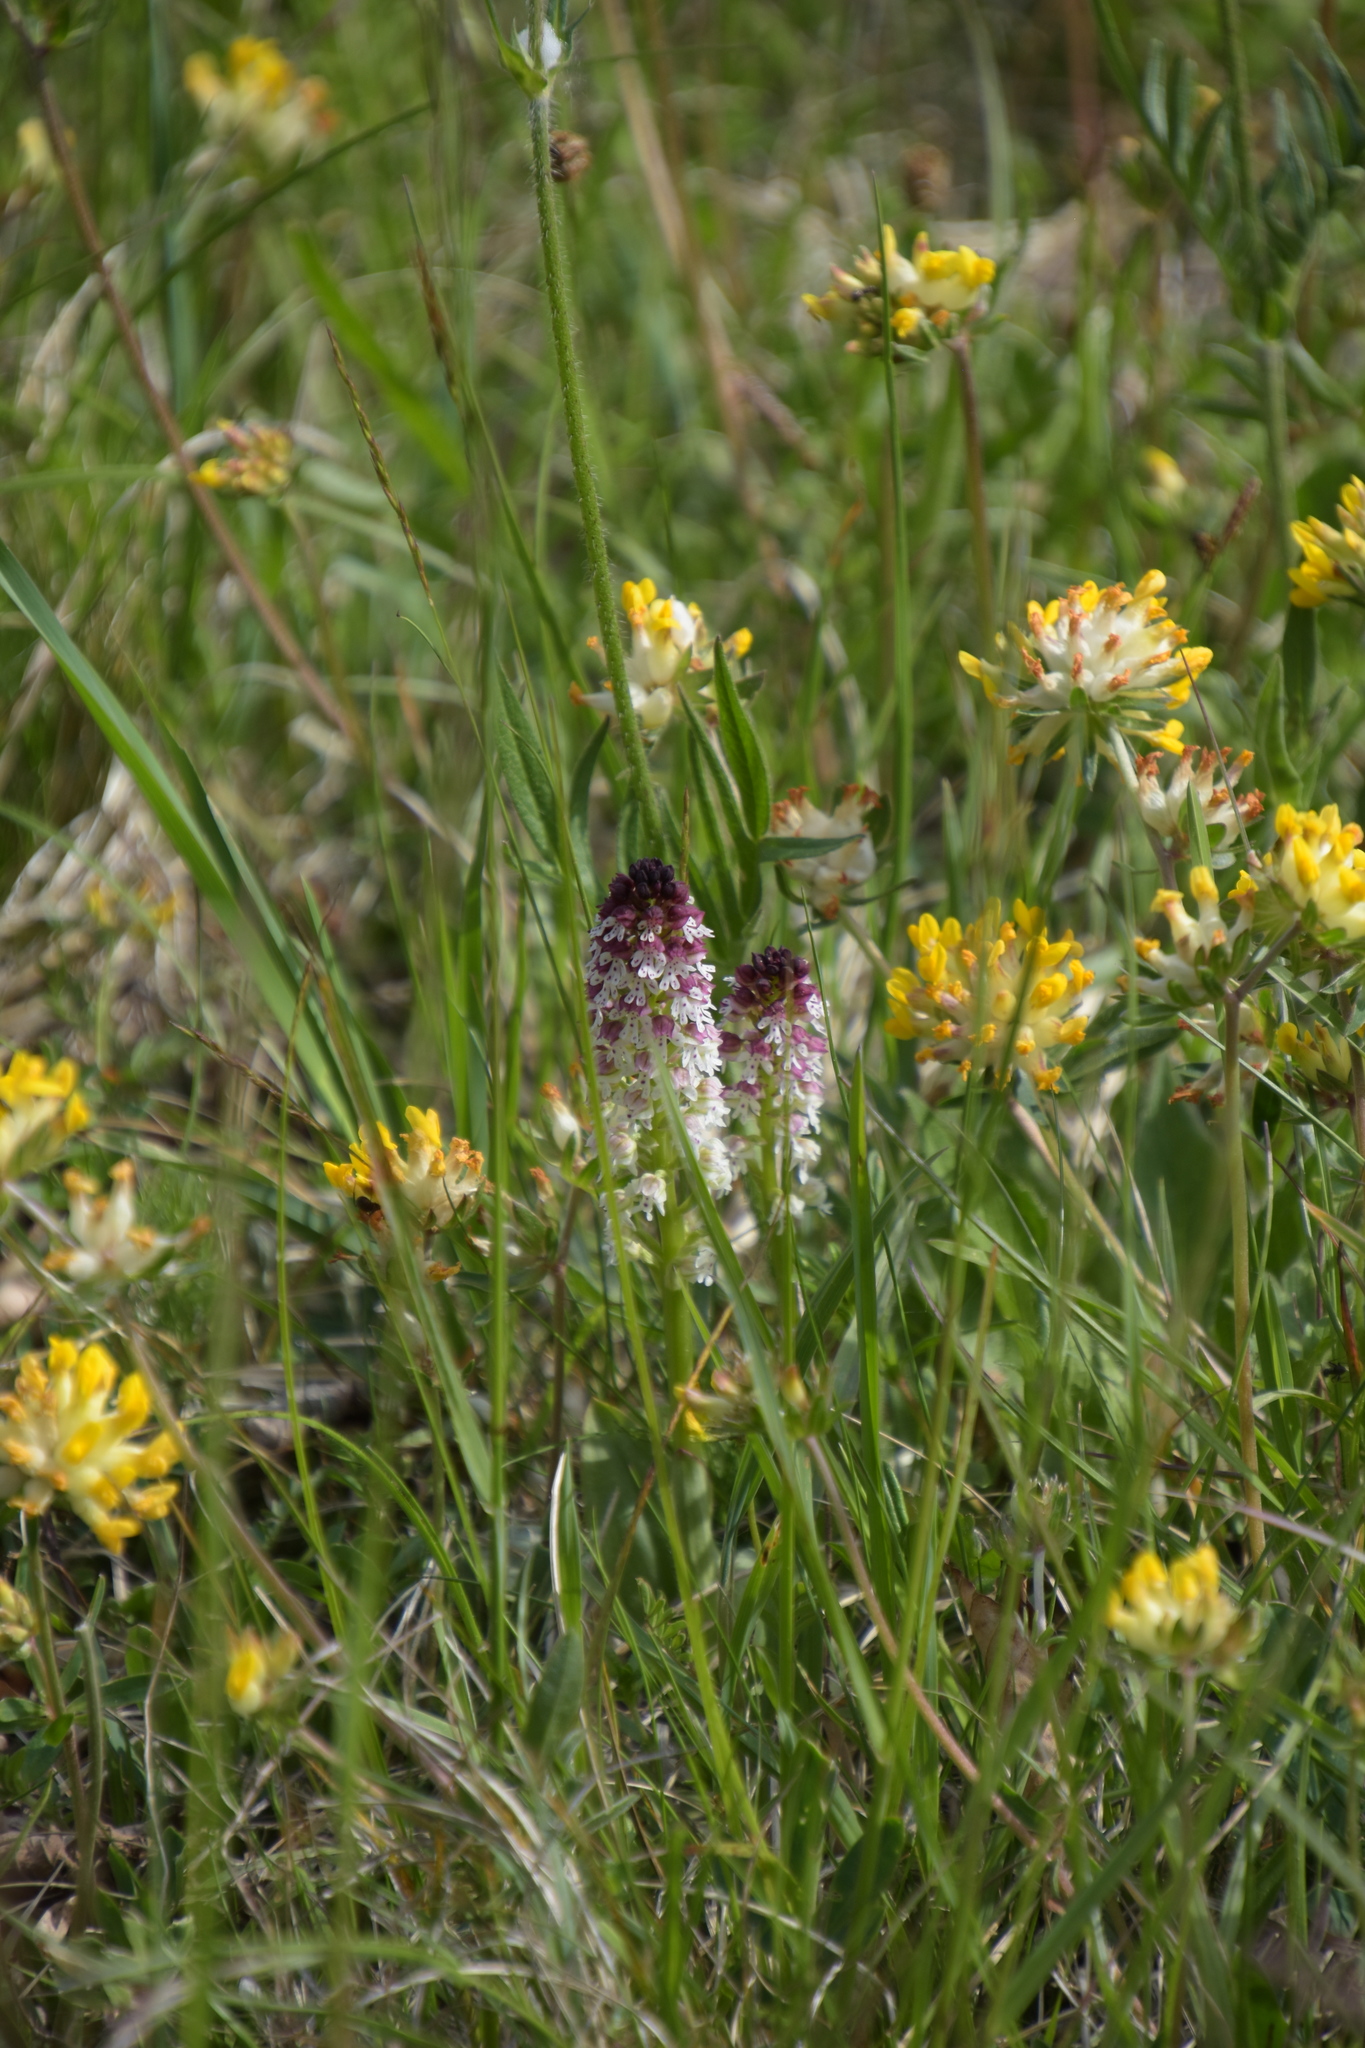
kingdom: Plantae
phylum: Tracheophyta
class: Liliopsida
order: Asparagales
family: Orchidaceae
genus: Neotinea
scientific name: Neotinea ustulata
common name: Burnt orchid
